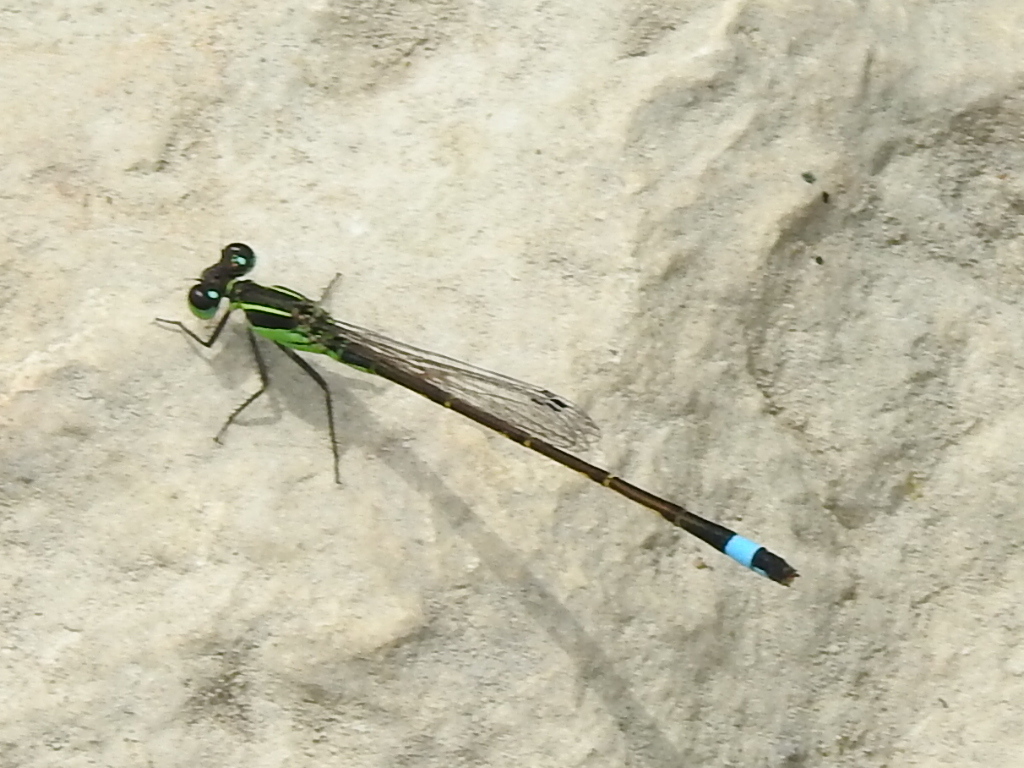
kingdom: Animalia
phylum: Arthropoda
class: Insecta
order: Odonata
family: Coenagrionidae
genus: Ischnura
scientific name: Ischnura ramburii
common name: Rambur's forktail
